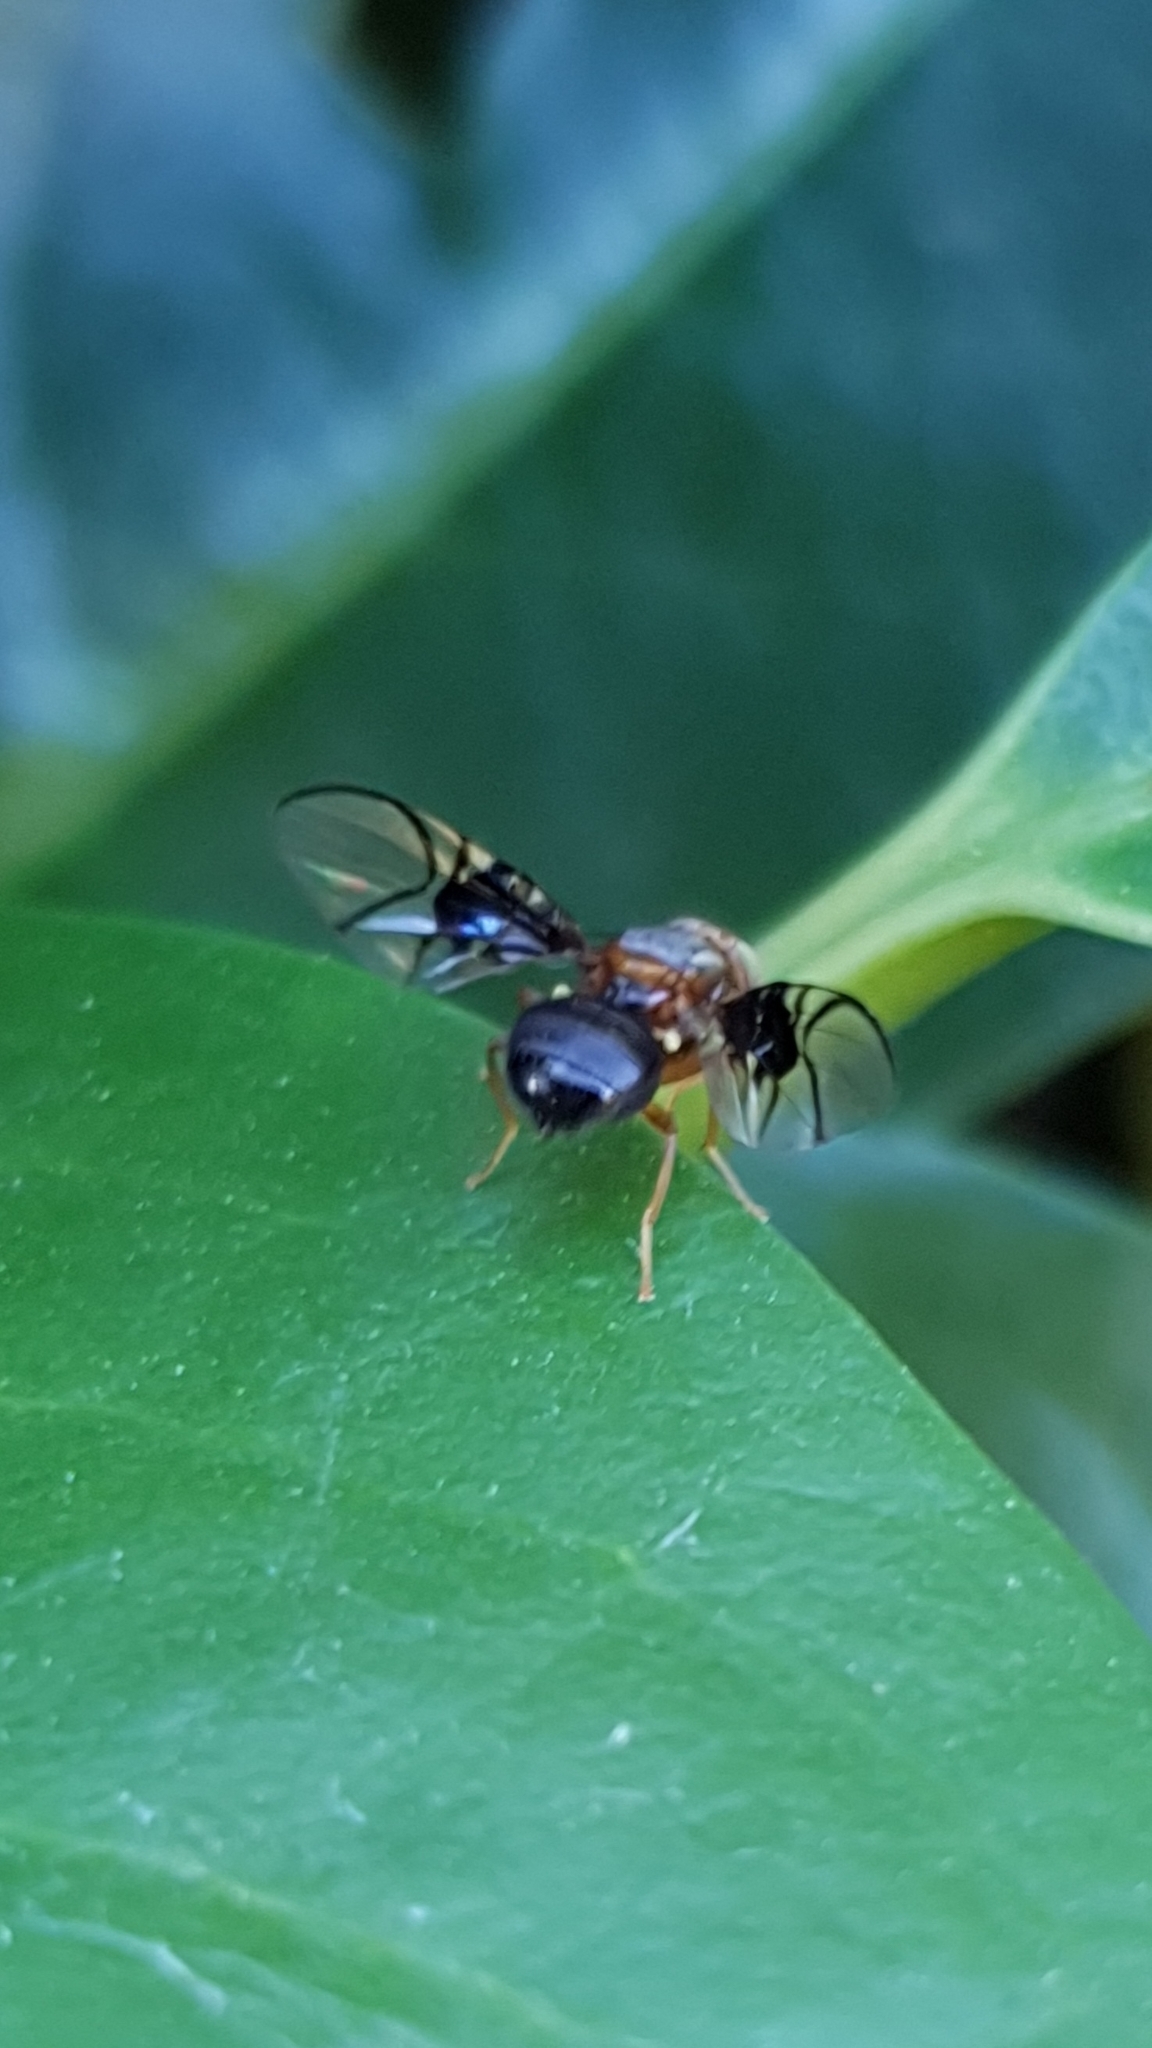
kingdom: Animalia
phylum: Arthropoda
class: Insecta
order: Diptera
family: Tephritidae
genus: Anomoia
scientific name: Anomoia purmunda
